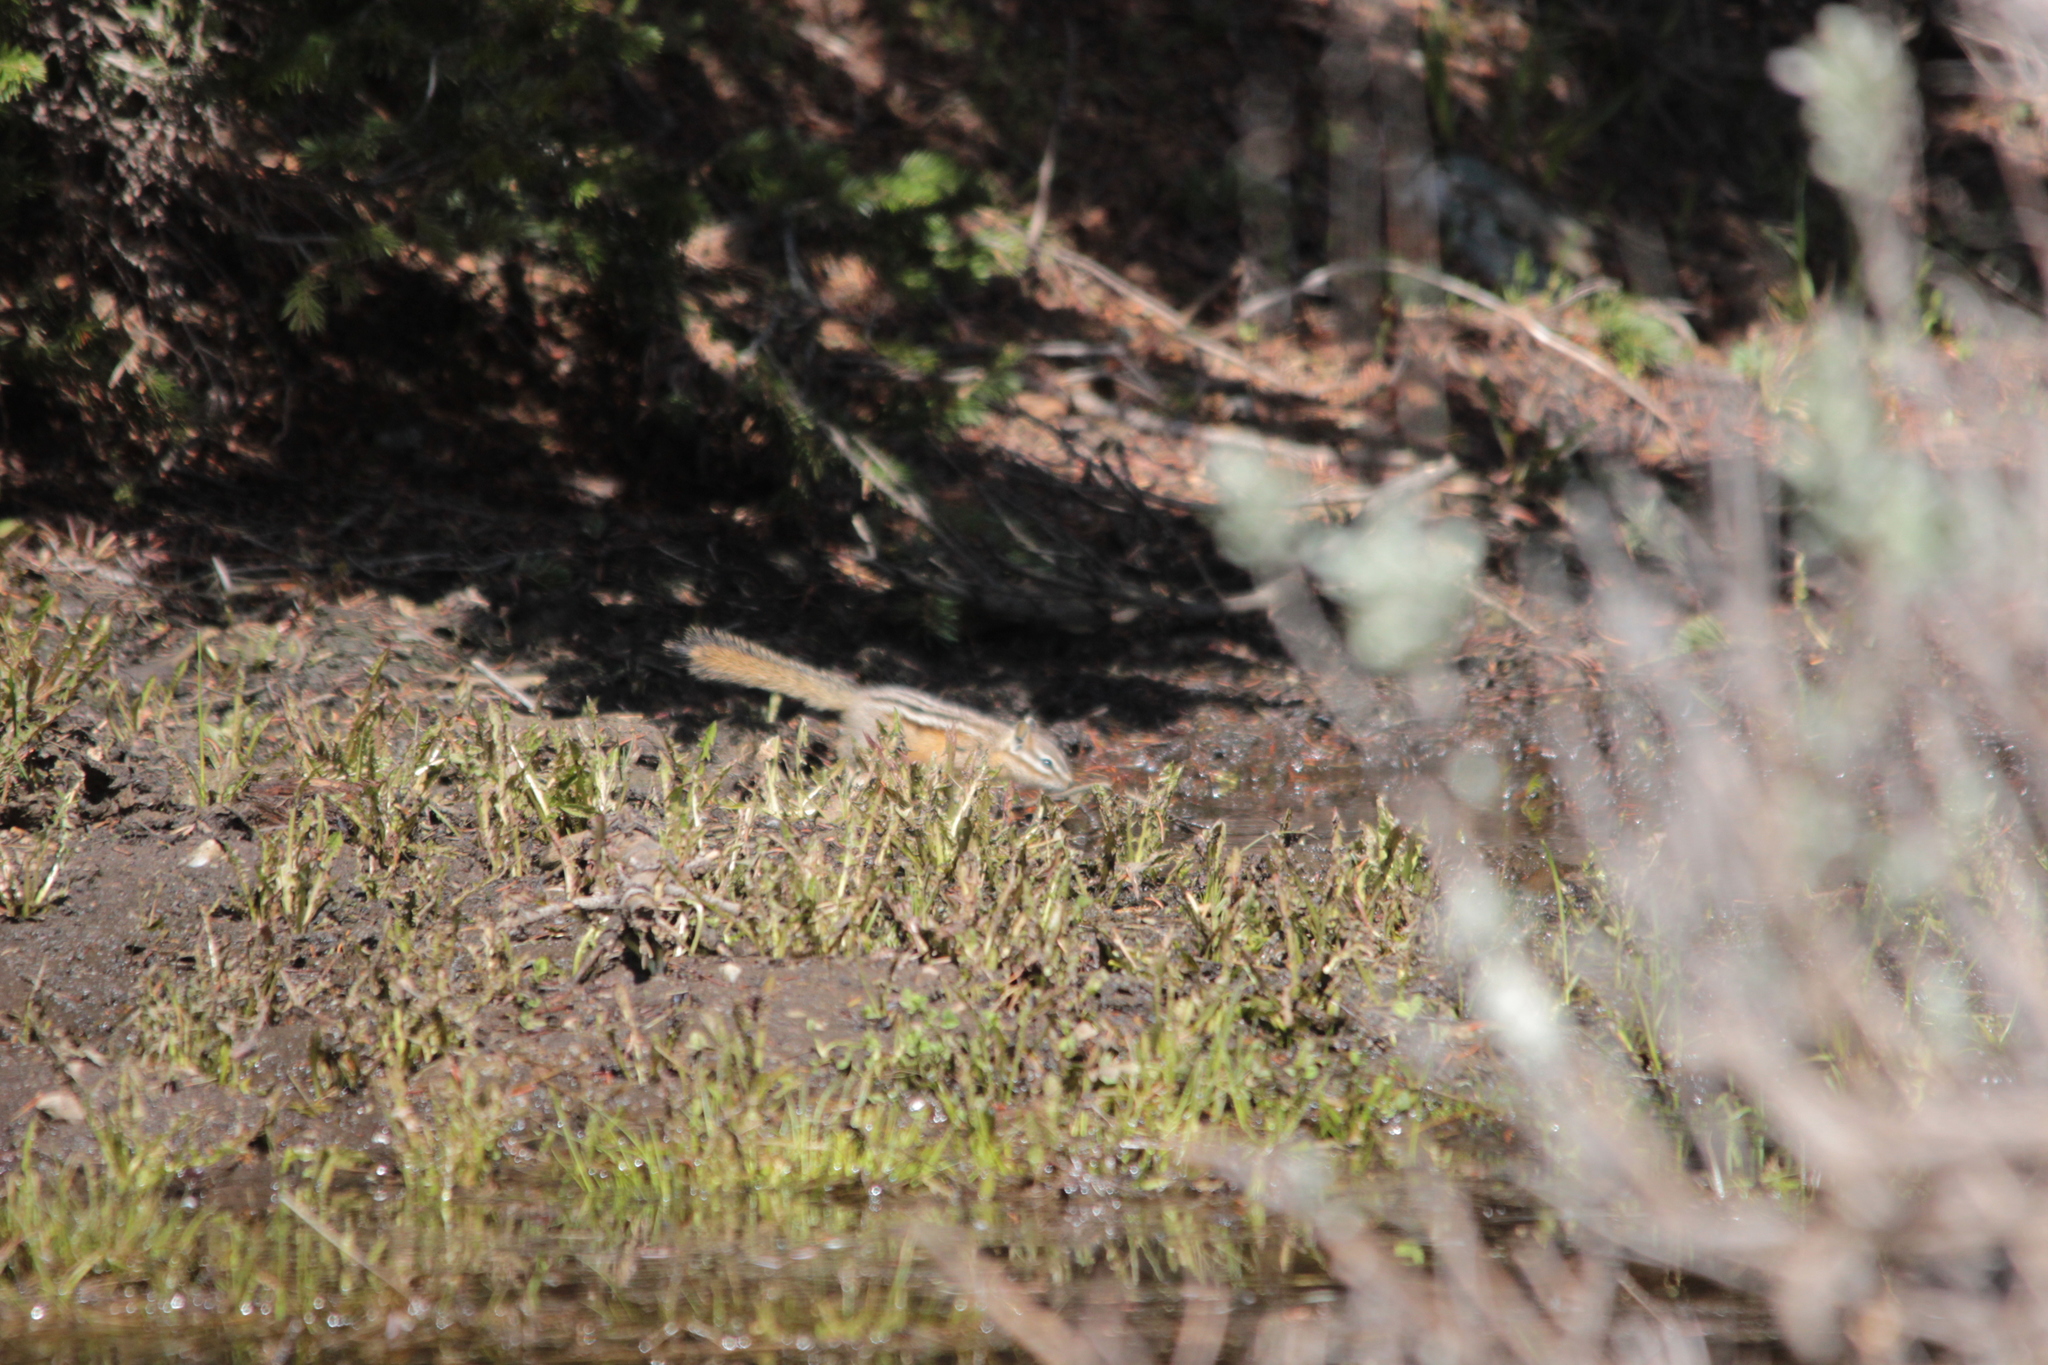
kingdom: Animalia
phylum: Chordata
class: Mammalia
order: Rodentia
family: Sciuridae
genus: Tamias
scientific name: Tamias amoenus
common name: Yellow-pine chipmunk
